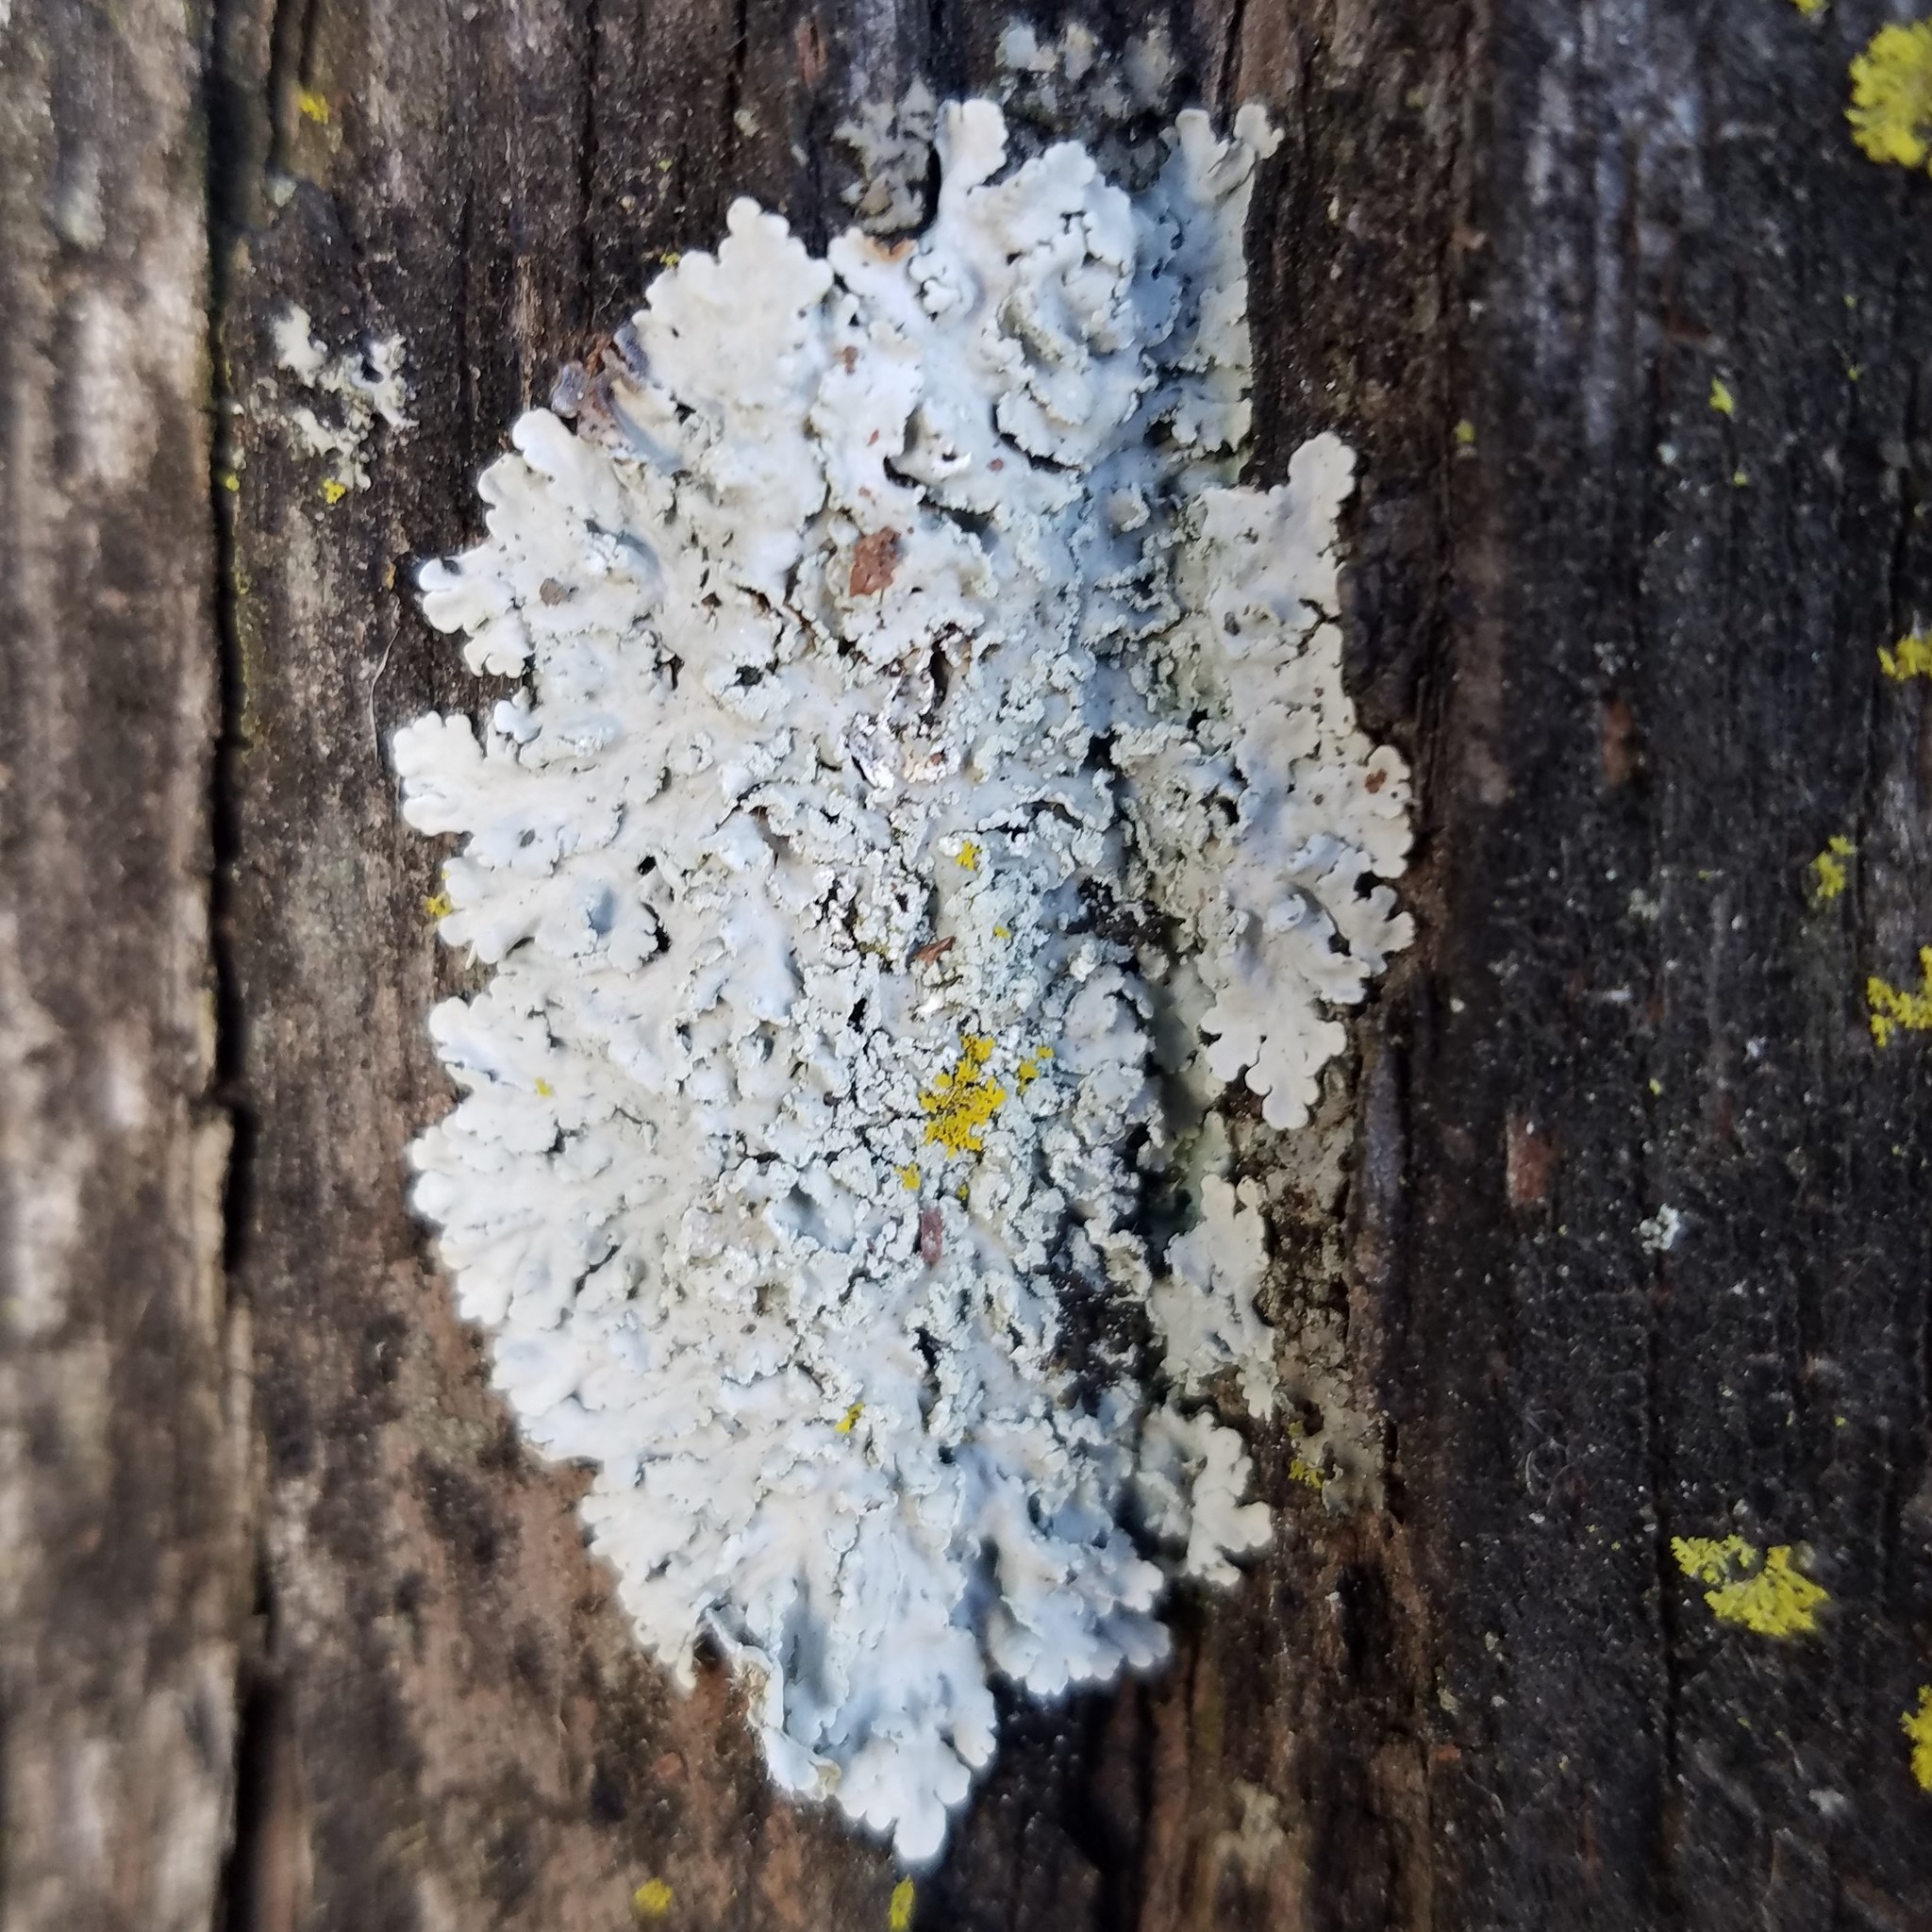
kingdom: Fungi
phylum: Ascomycota
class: Lecanoromycetes
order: Caliciales
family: Physciaceae
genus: Polyblastidium
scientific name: Polyblastidium albicans
